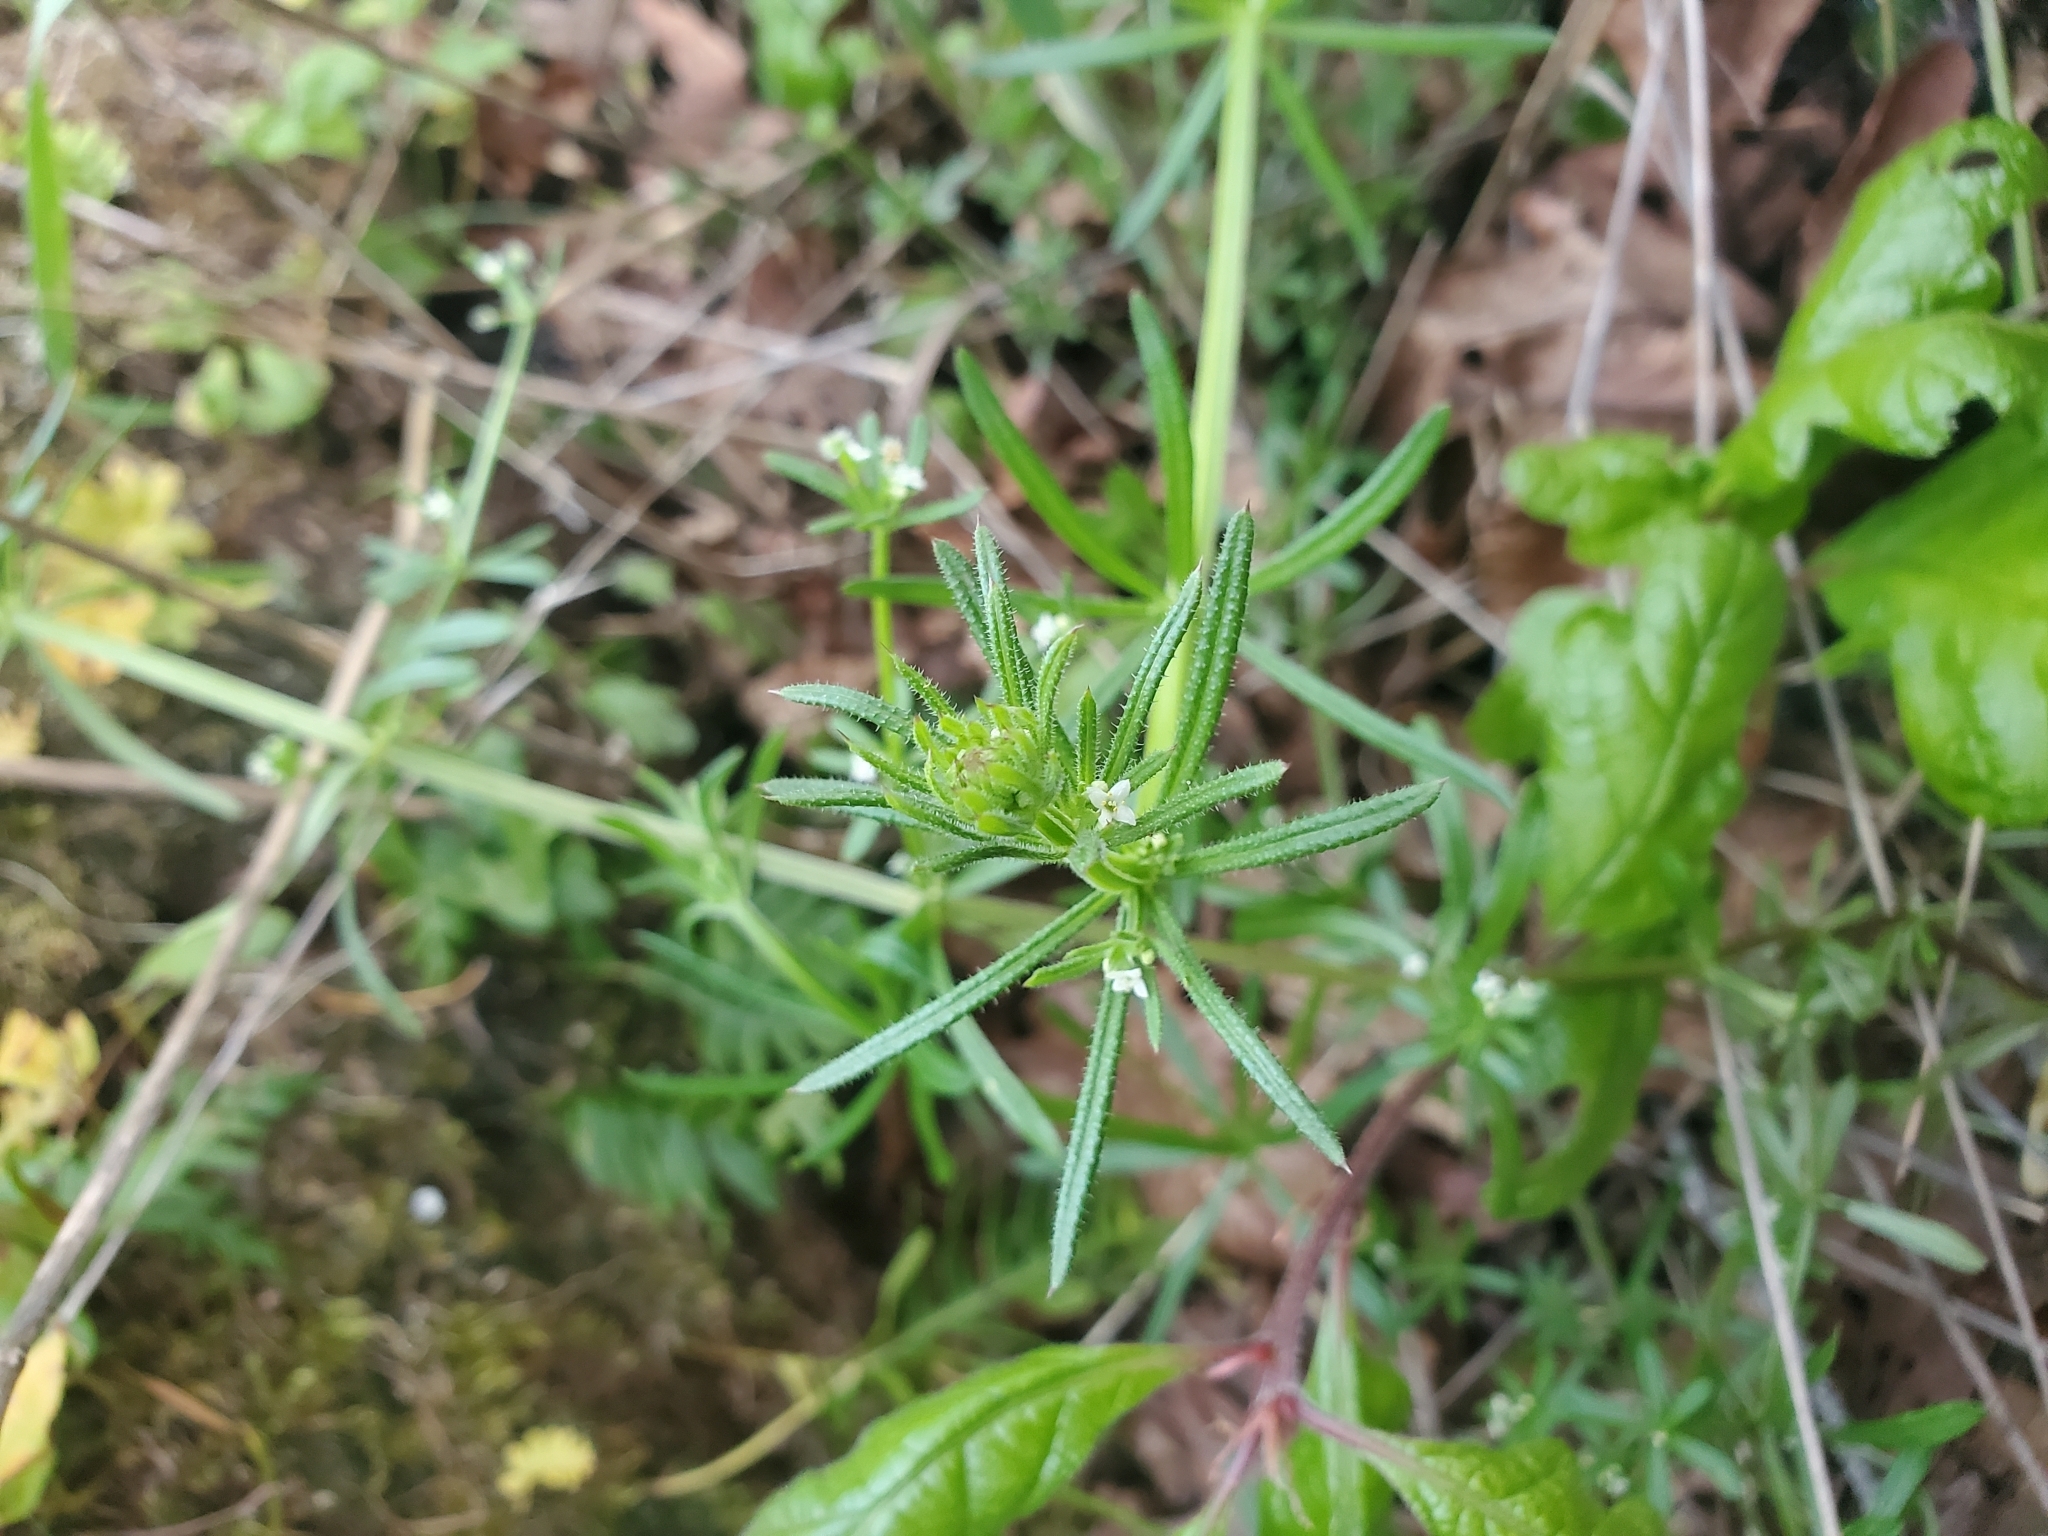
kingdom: Plantae
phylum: Tracheophyta
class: Magnoliopsida
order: Gentianales
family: Rubiaceae
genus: Galium
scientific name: Galium aparine
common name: Cleavers
